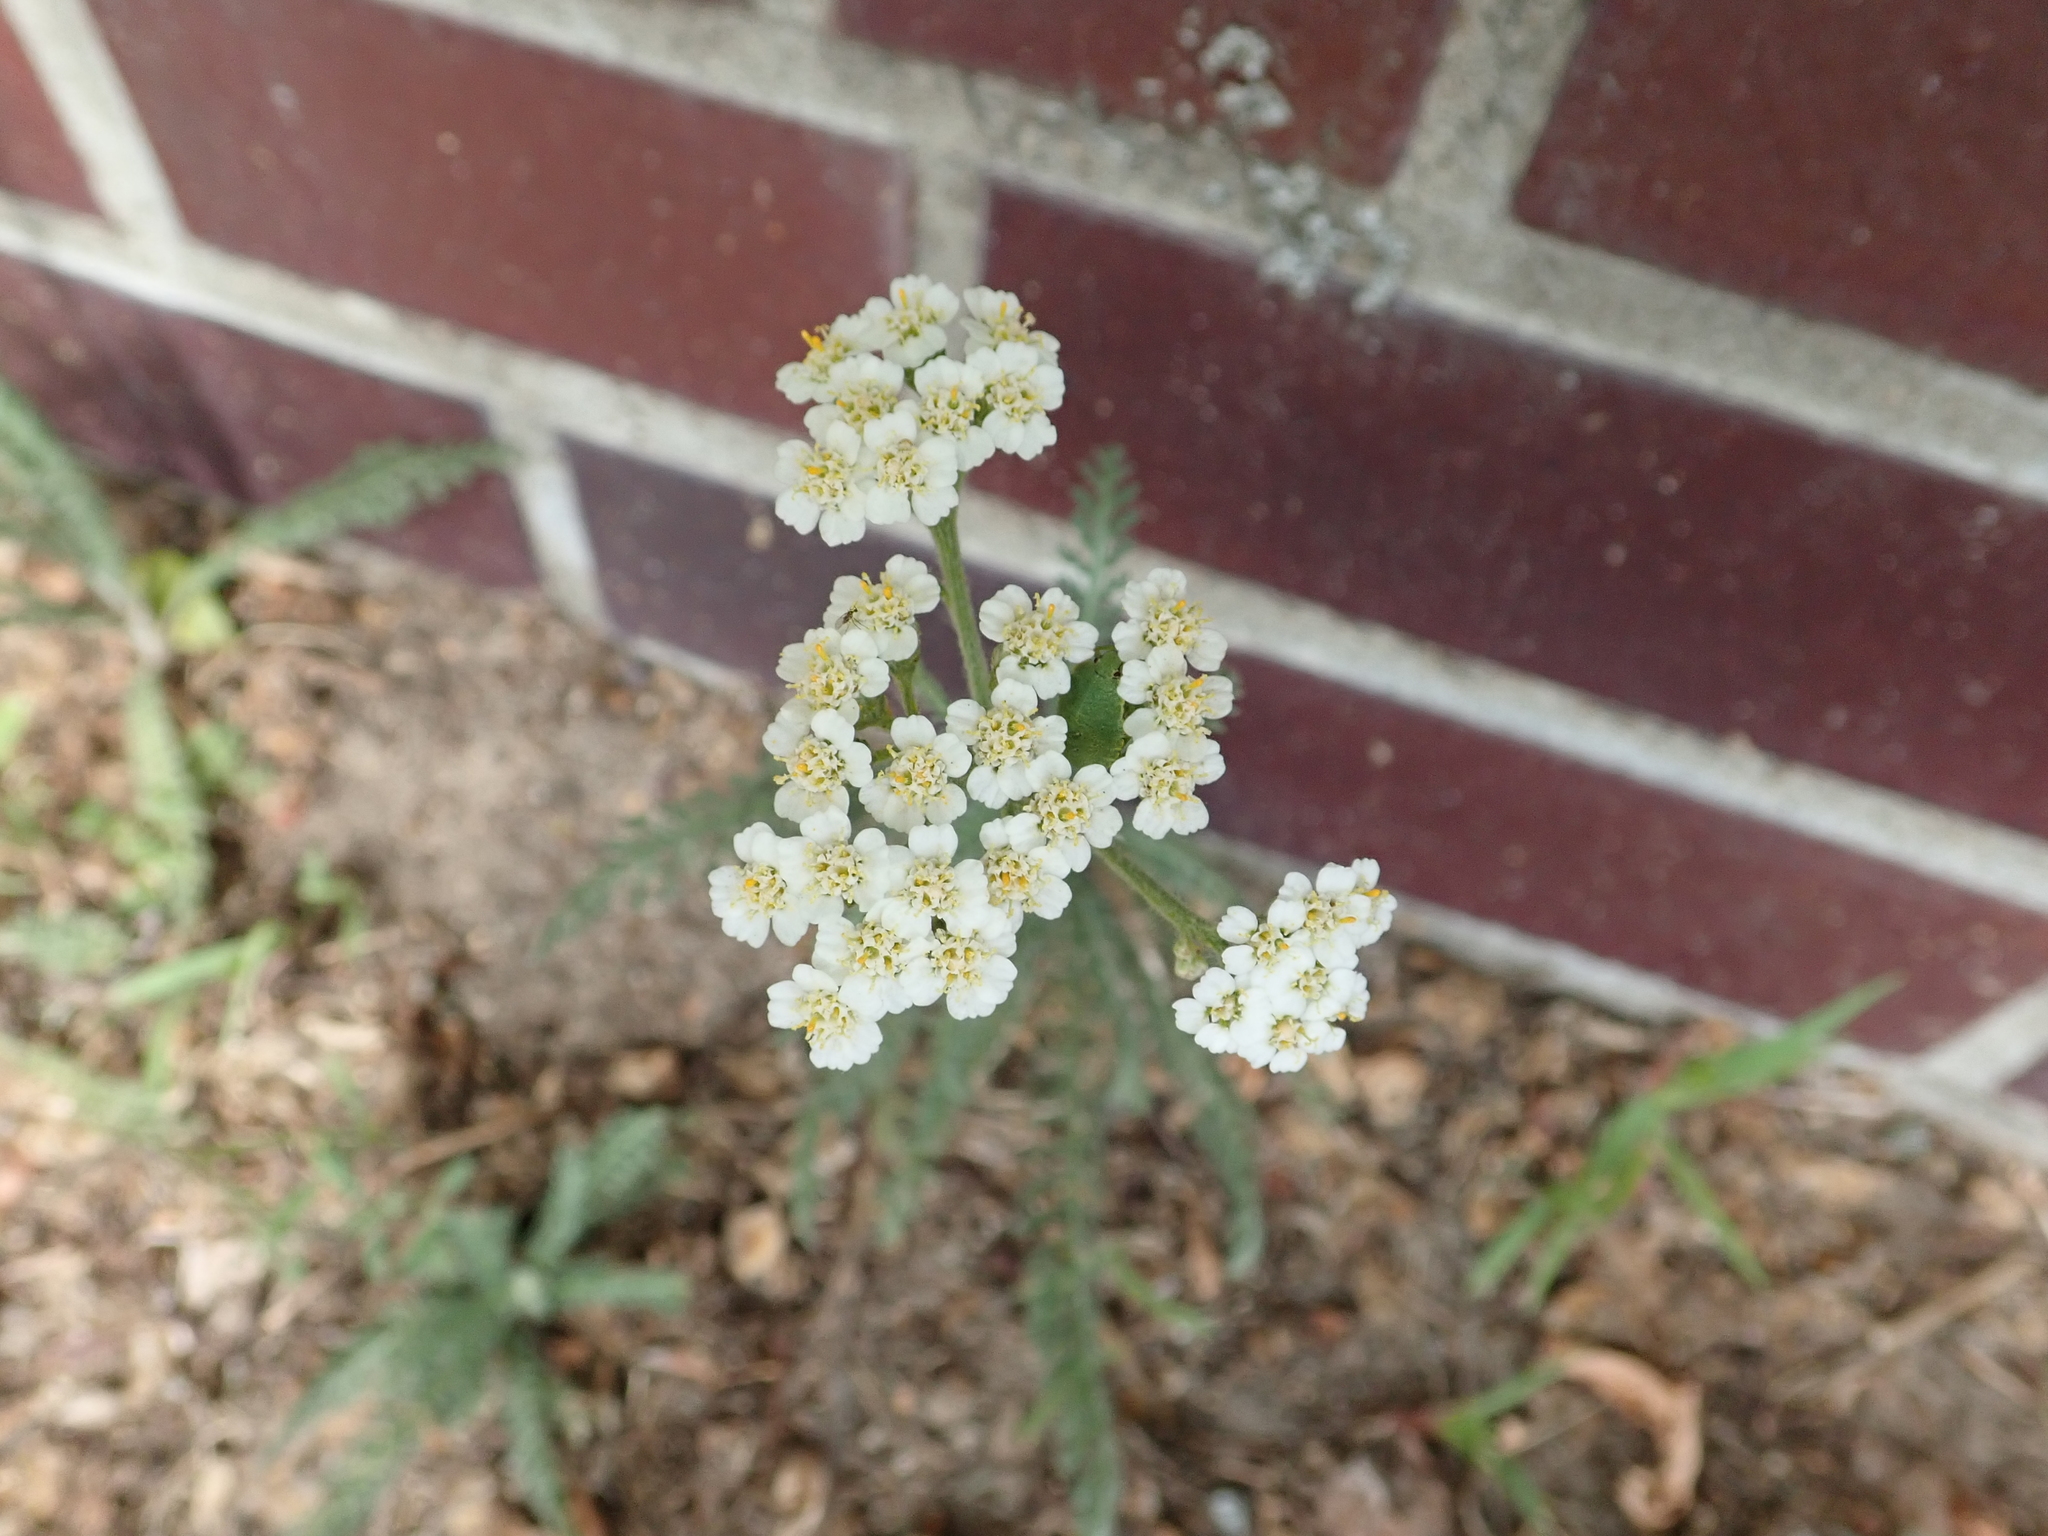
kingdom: Plantae
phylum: Tracheophyta
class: Magnoliopsida
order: Asterales
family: Asteraceae
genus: Achillea
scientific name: Achillea millefolium
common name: Yarrow
